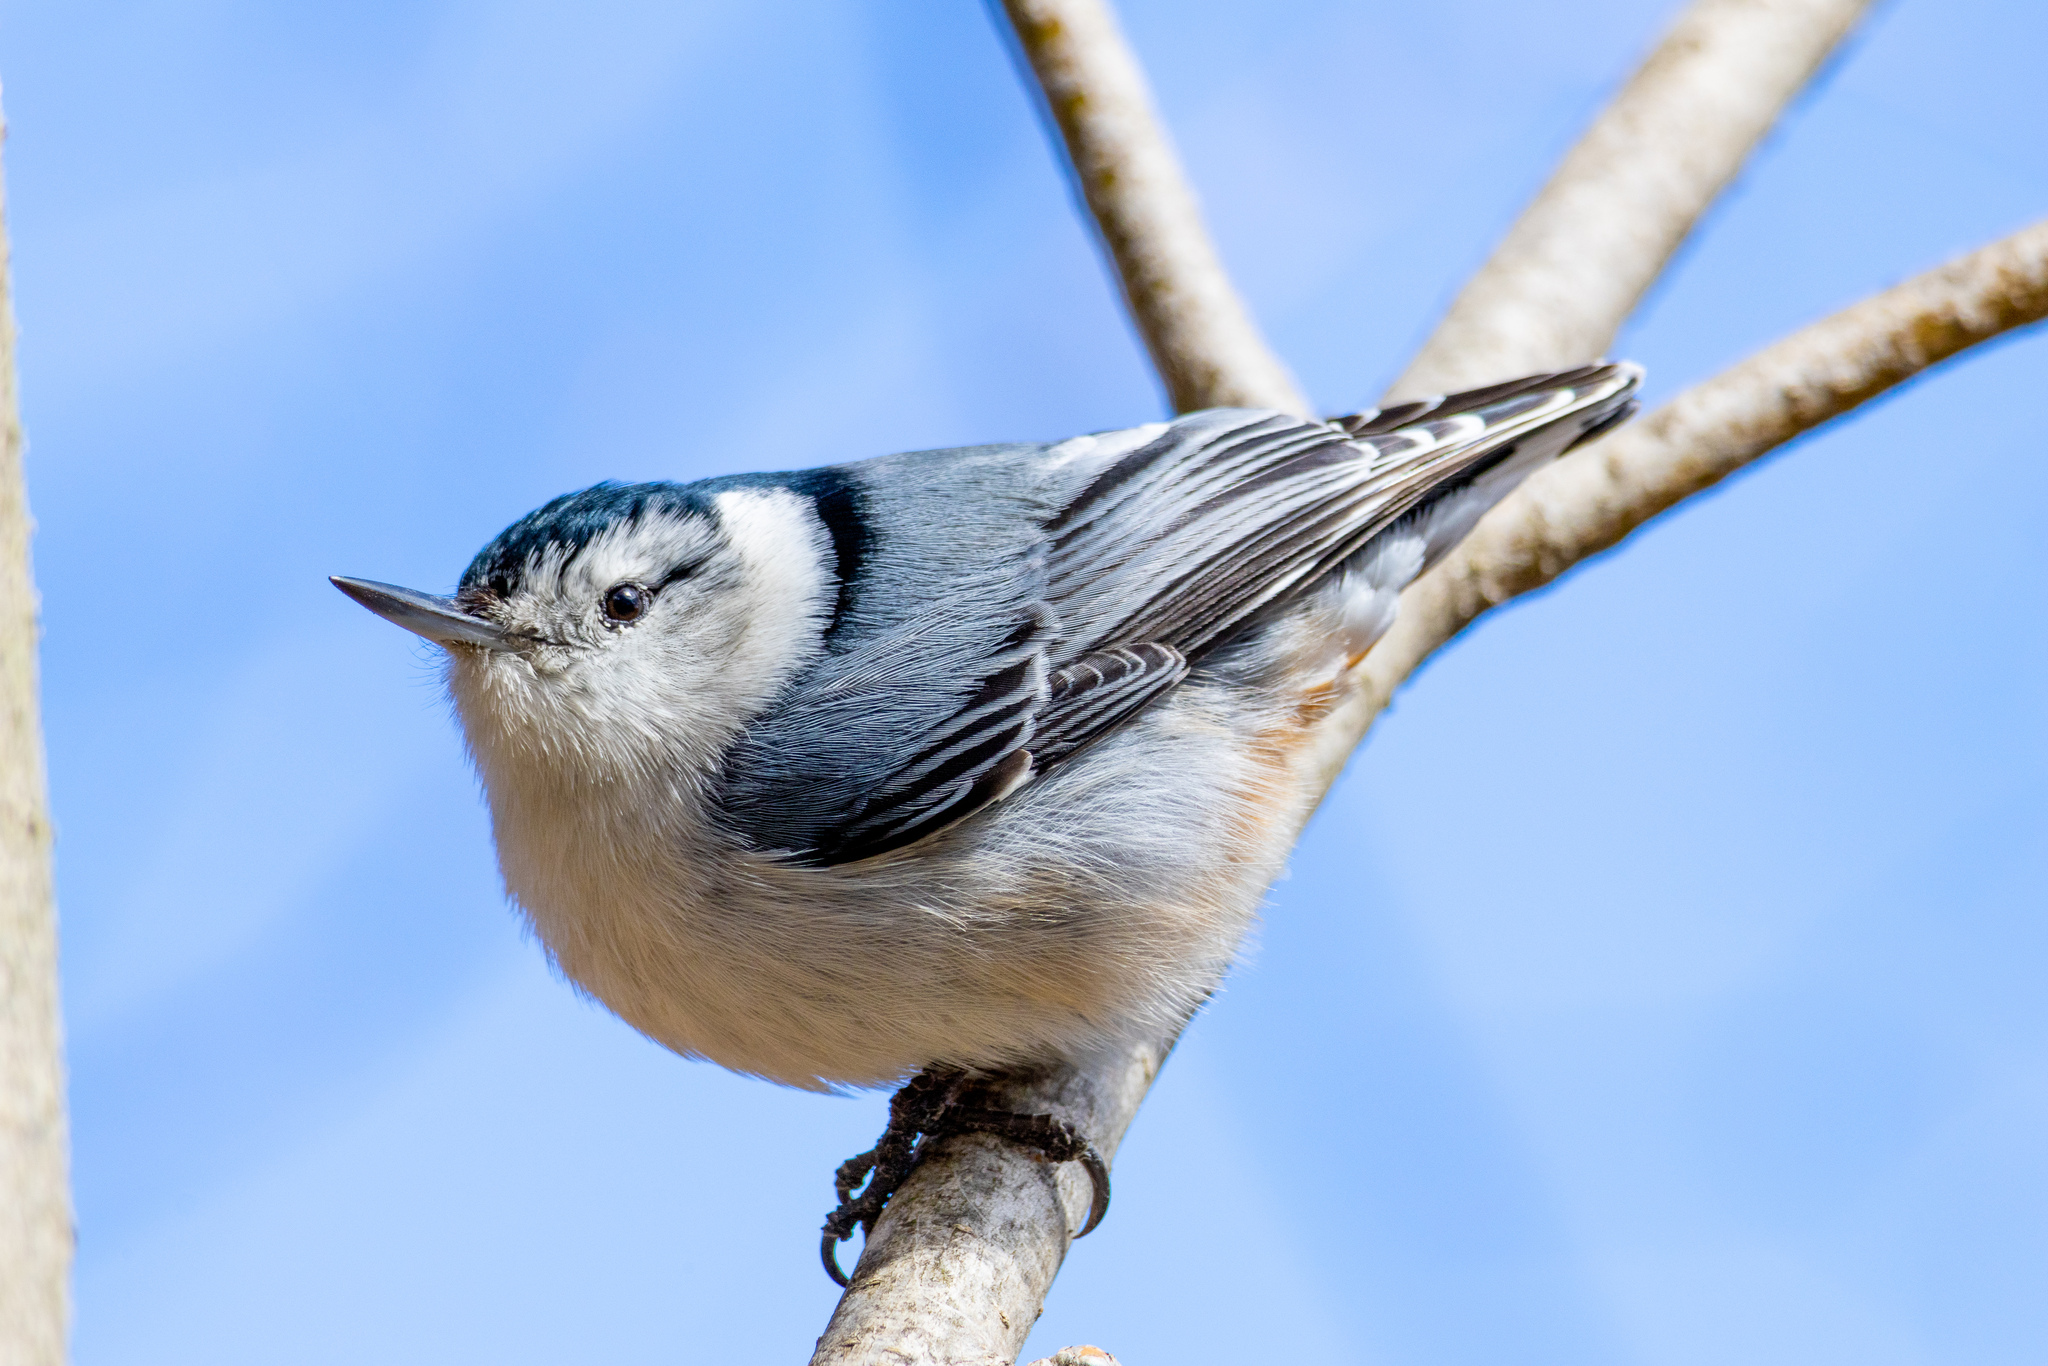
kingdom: Animalia
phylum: Chordata
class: Aves
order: Passeriformes
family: Sittidae
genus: Sitta
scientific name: Sitta carolinensis
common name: White-breasted nuthatch
